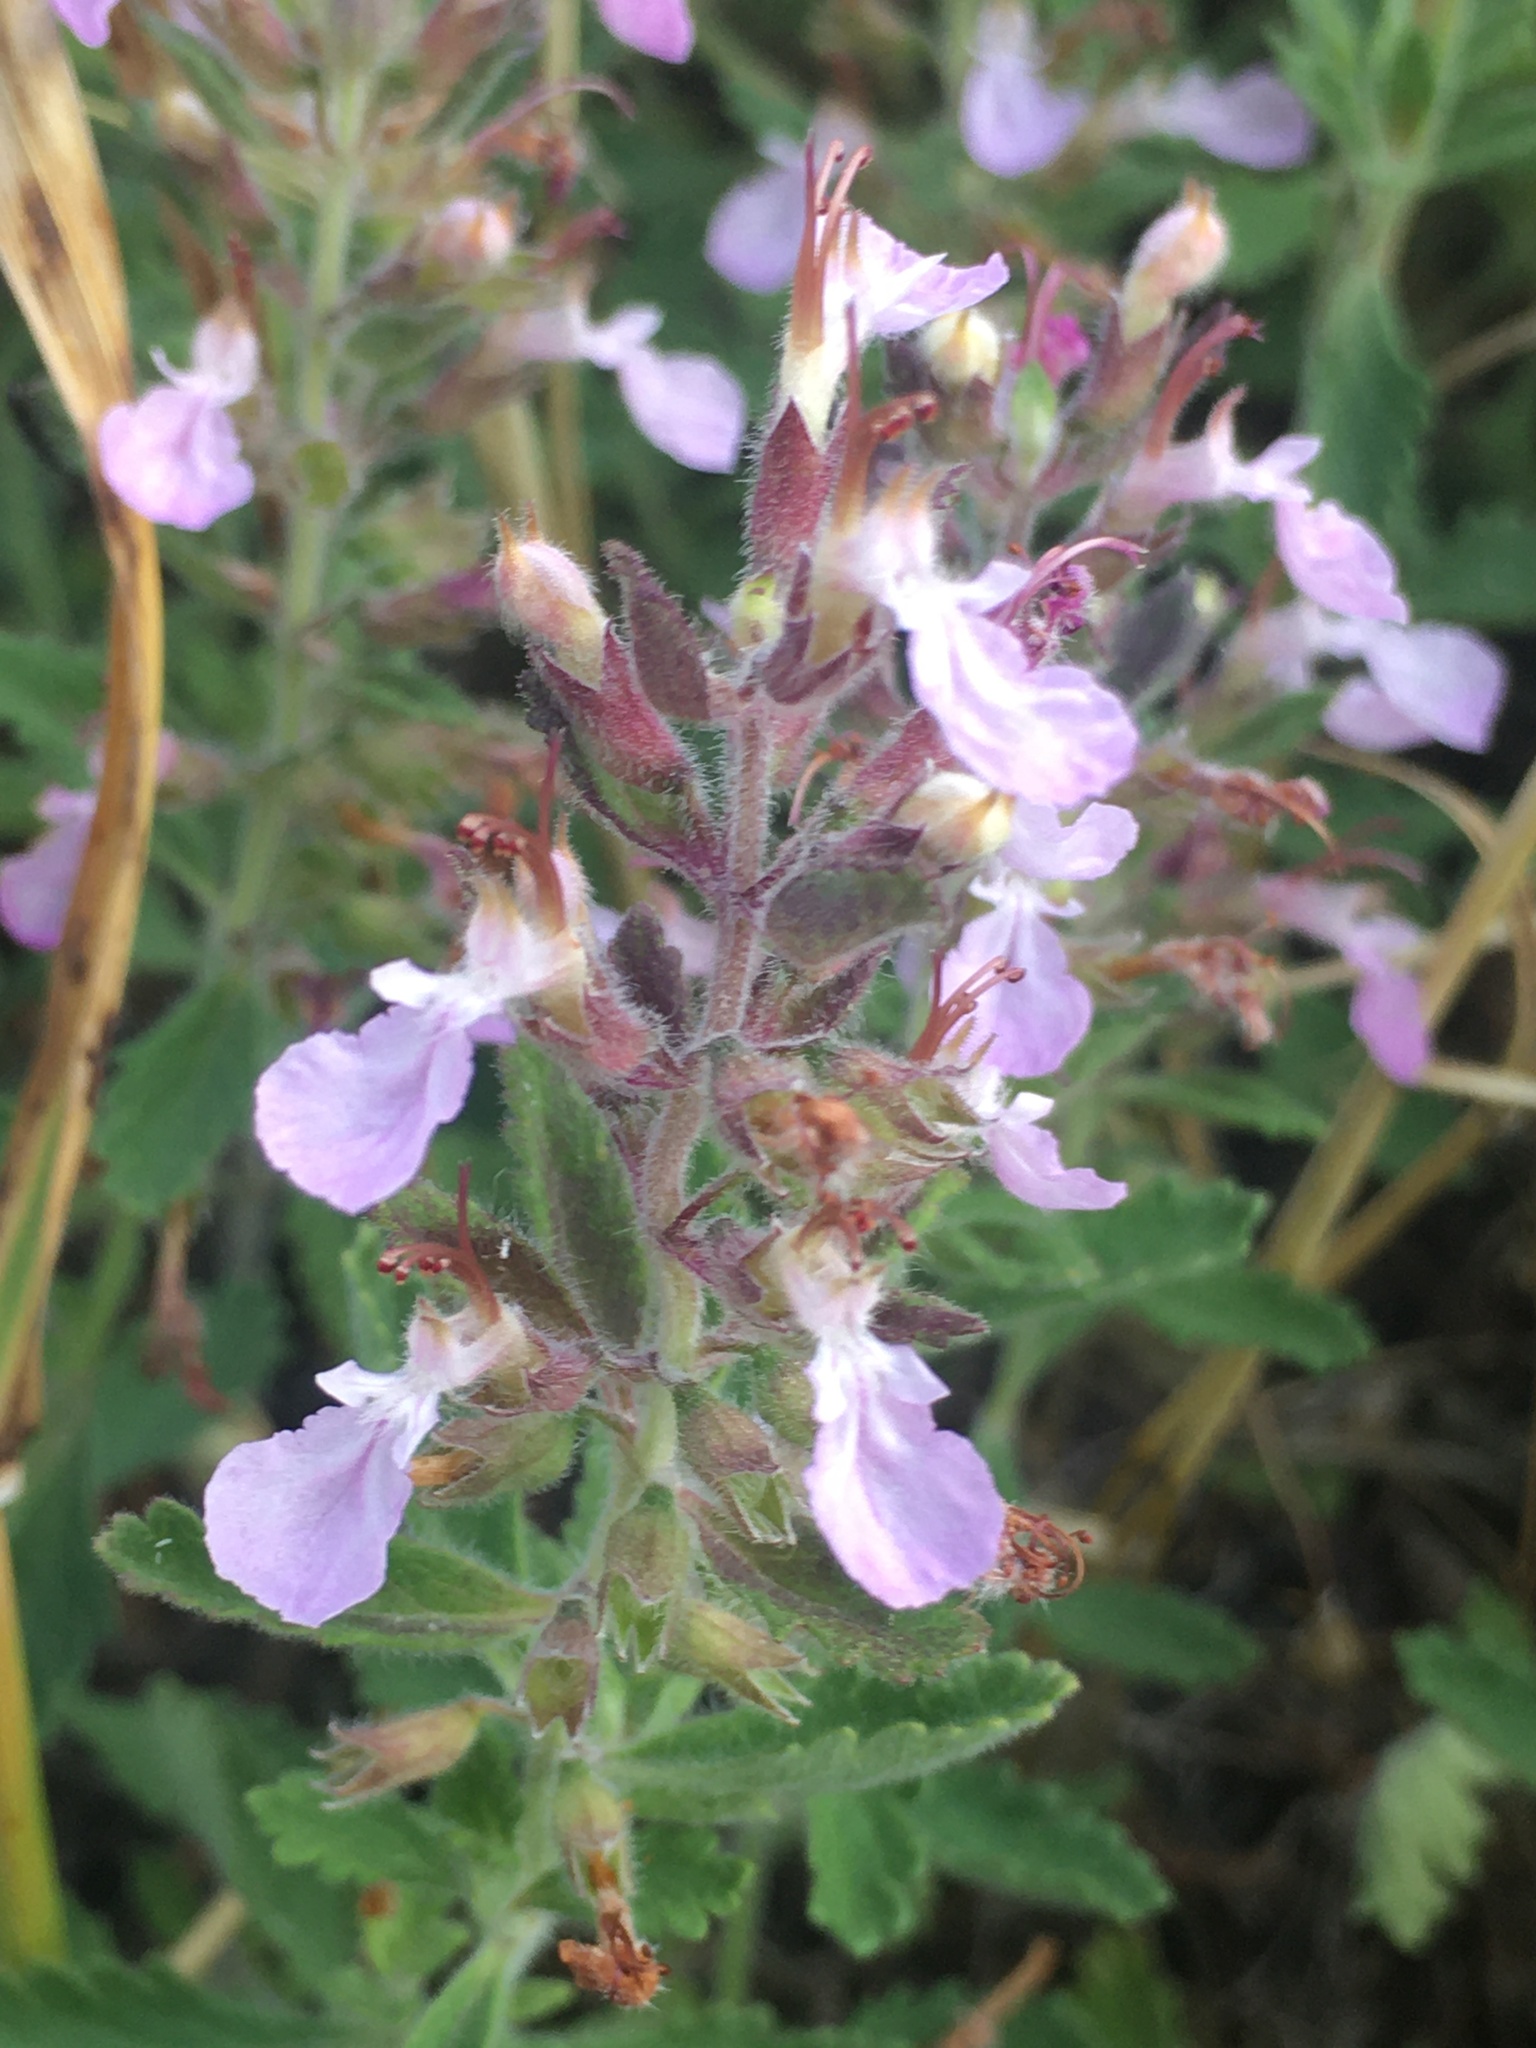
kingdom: Plantae
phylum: Tracheophyta
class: Magnoliopsida
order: Lamiales
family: Lamiaceae
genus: Teucrium
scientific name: Teucrium chamaedrys
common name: Wall germander
